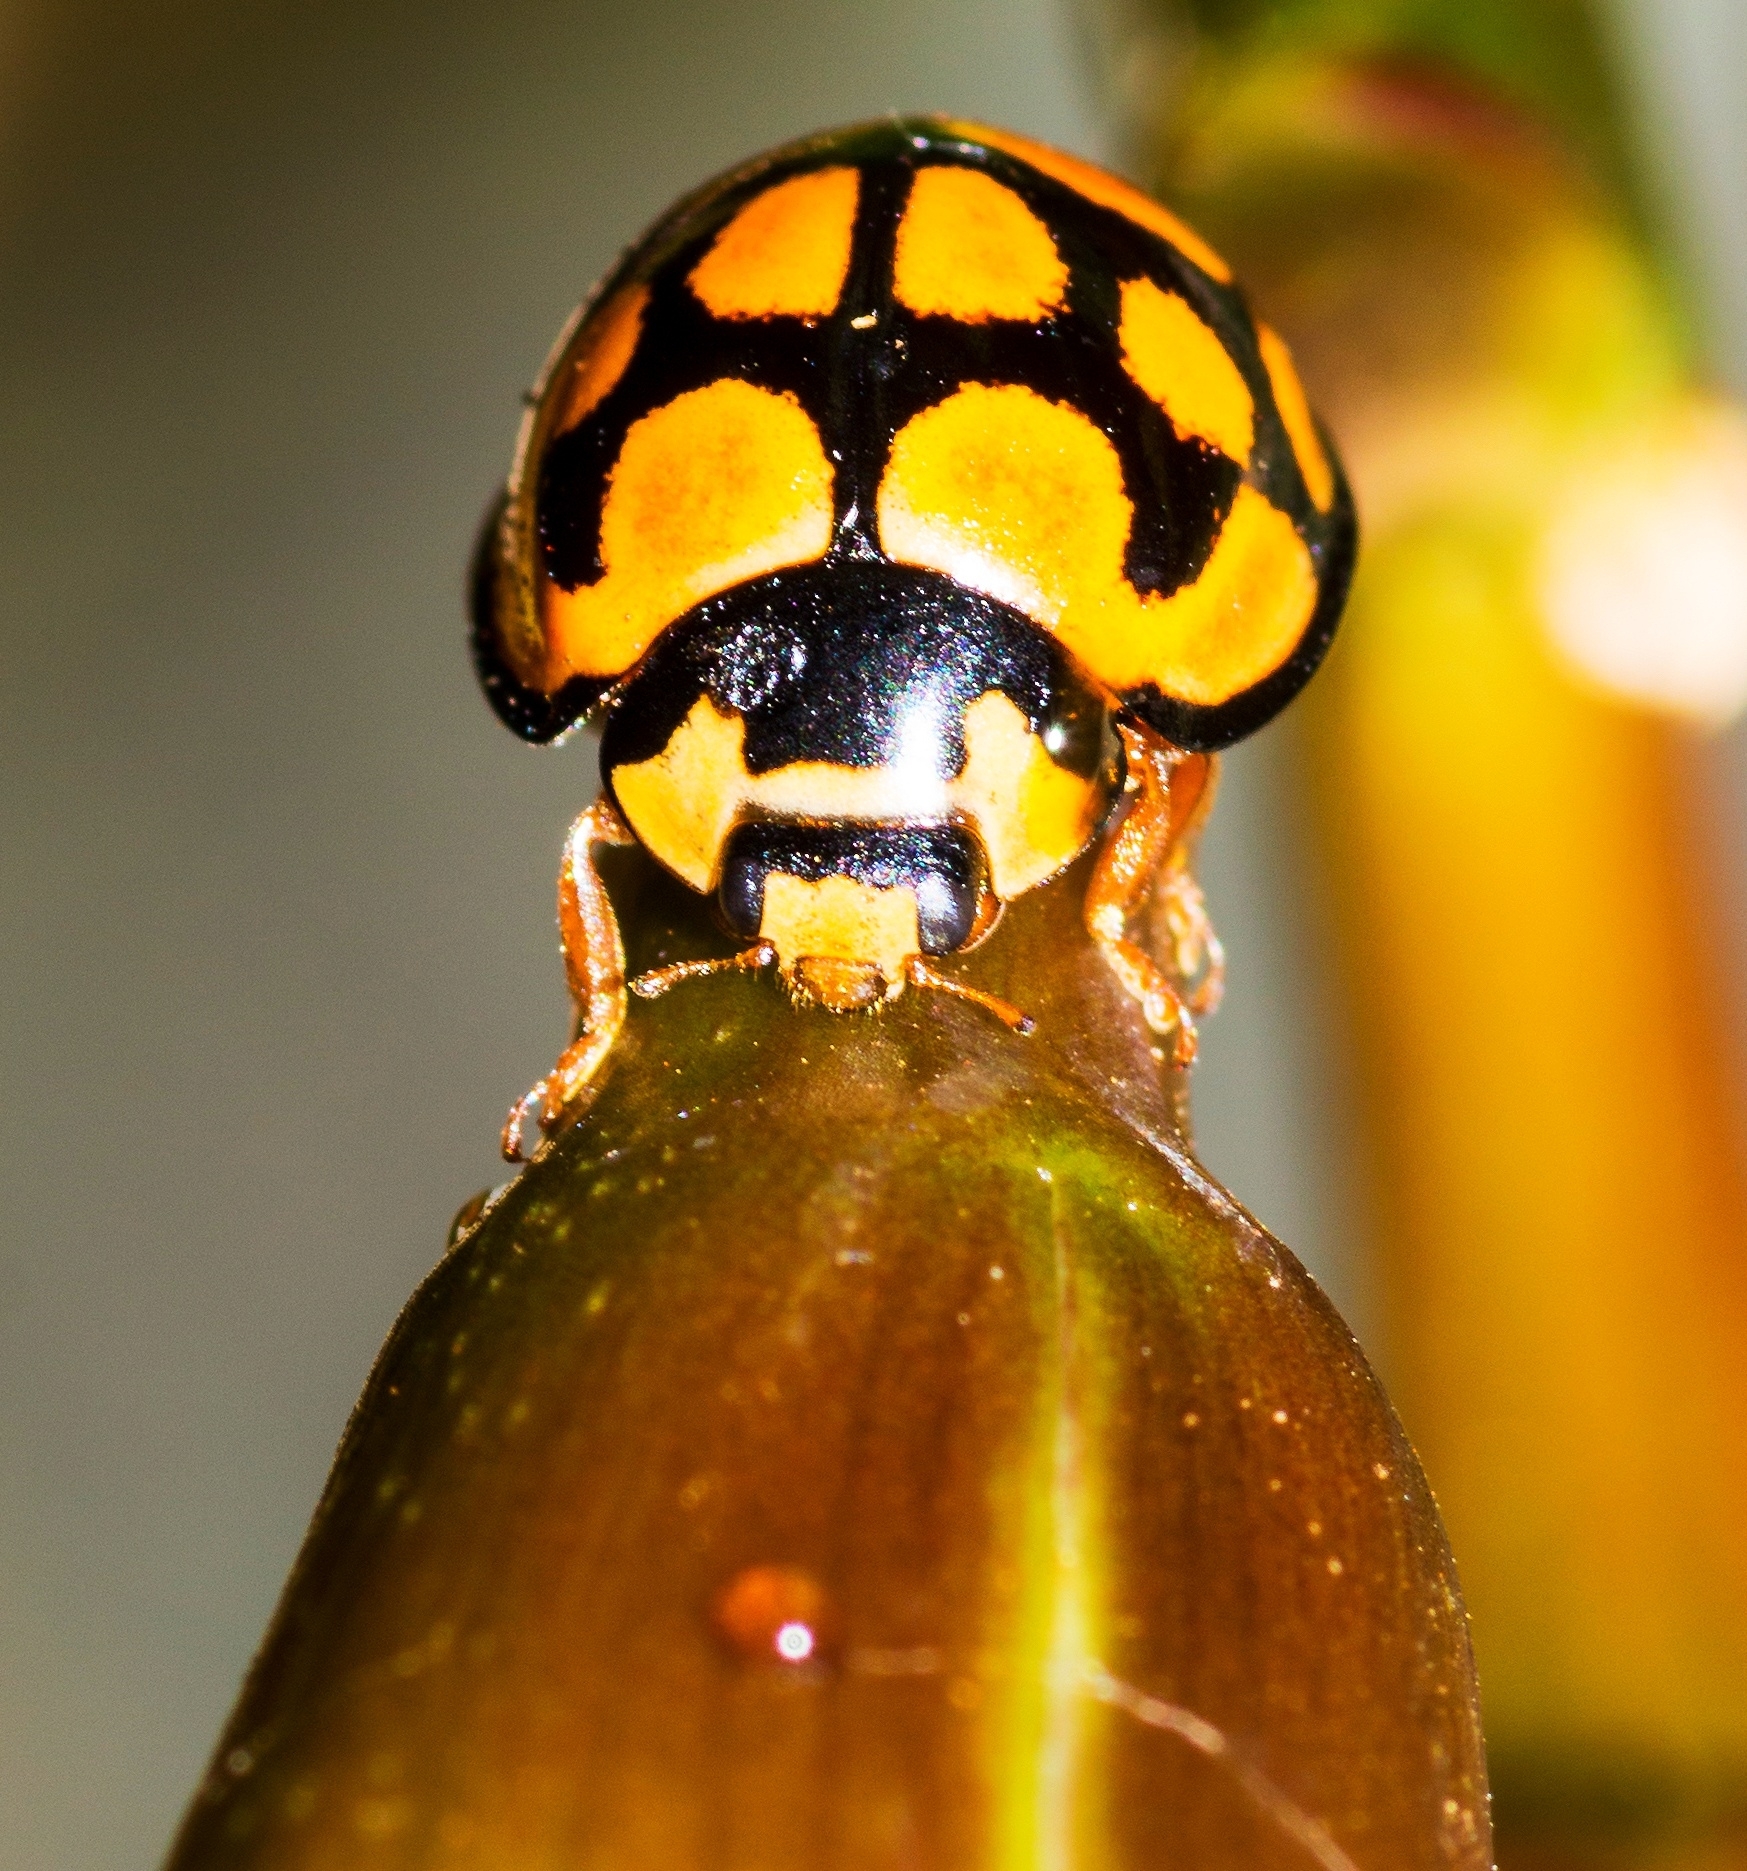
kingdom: Animalia
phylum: Arthropoda
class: Insecta
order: Coleoptera
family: Coccinellidae
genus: Cheilomenes
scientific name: Cheilomenes lunata
